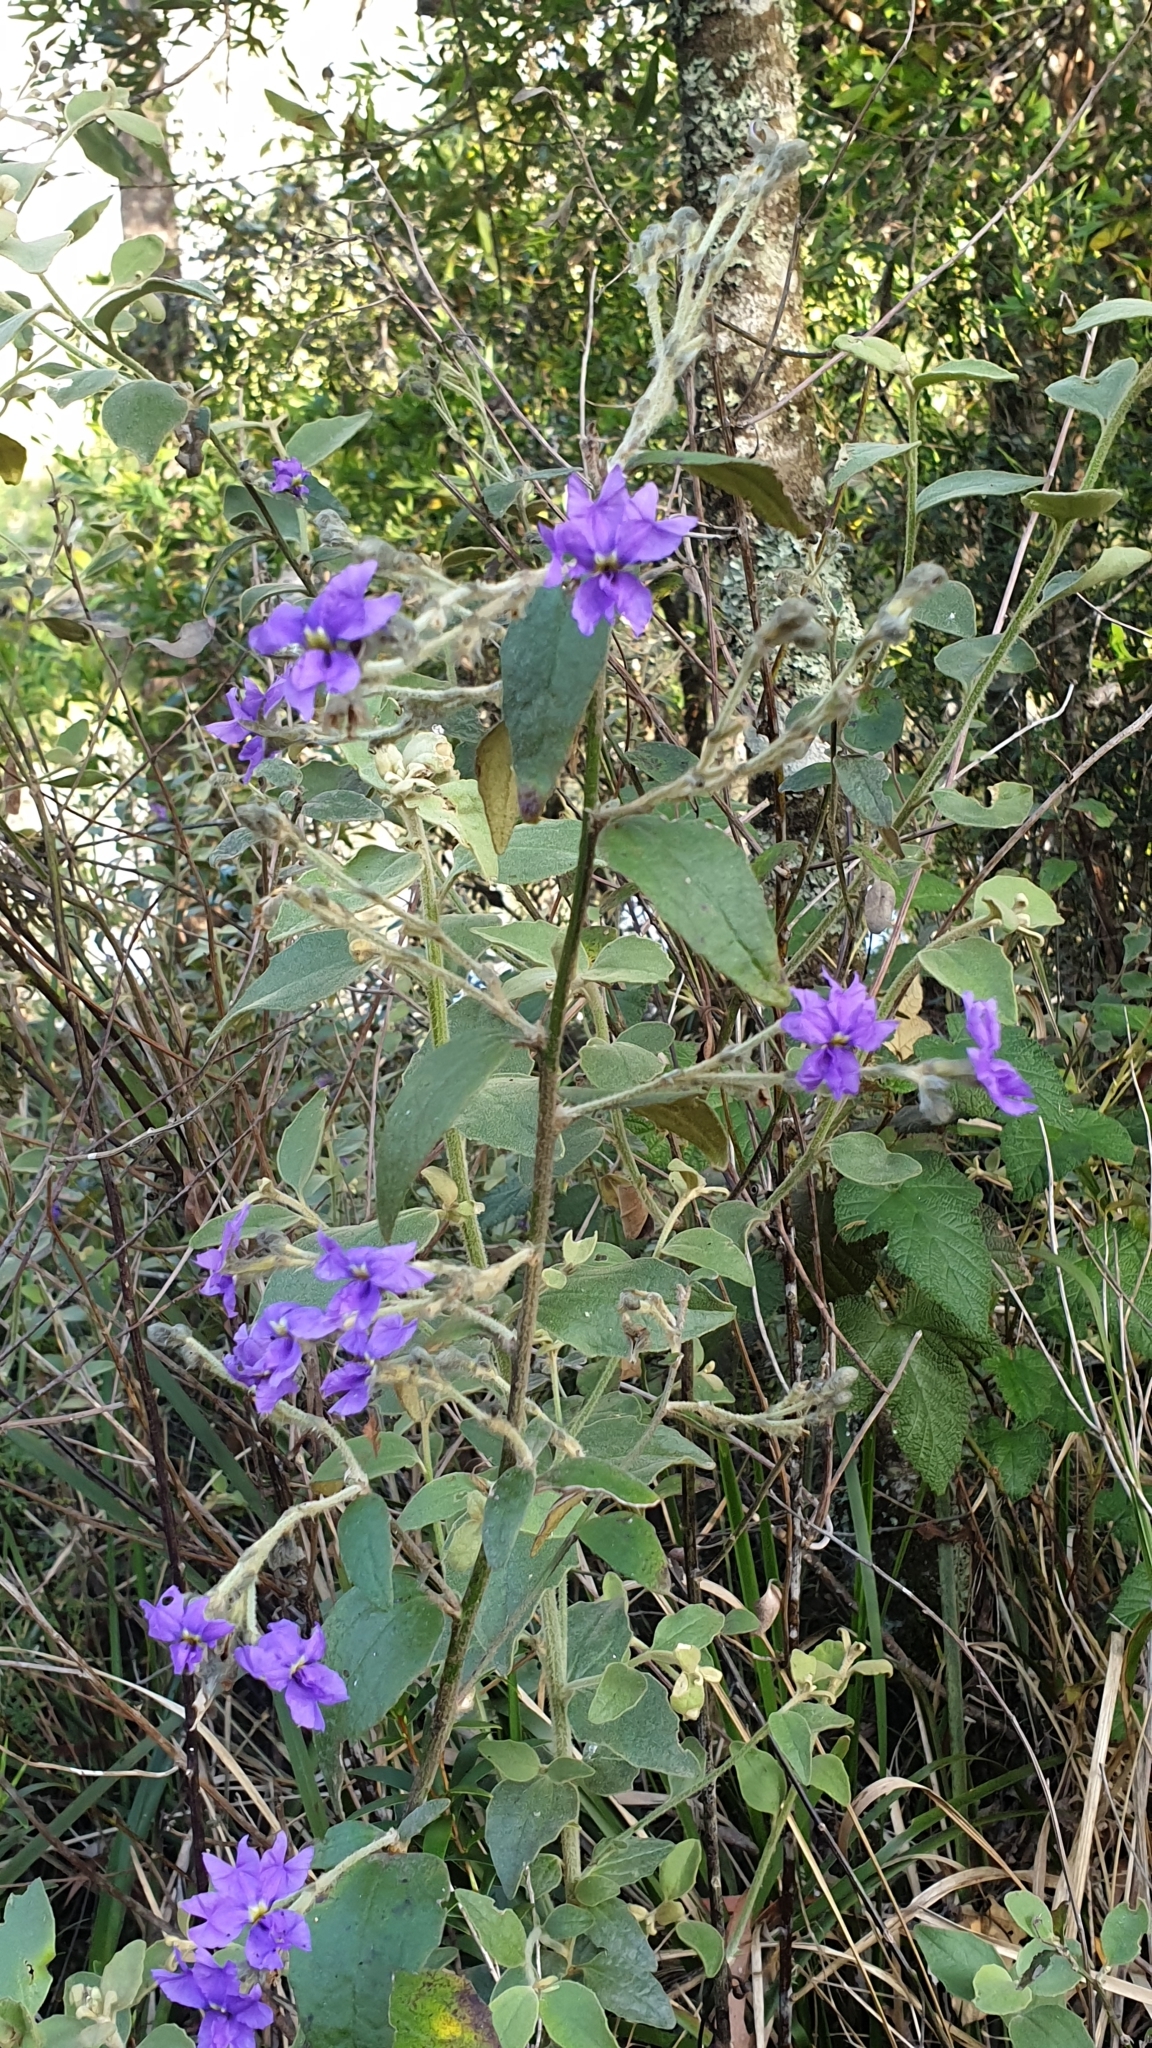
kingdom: Plantae
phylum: Tracheophyta
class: Magnoliopsida
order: Asterales
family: Goodeniaceae
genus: Dampiera
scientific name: Dampiera purpurea
